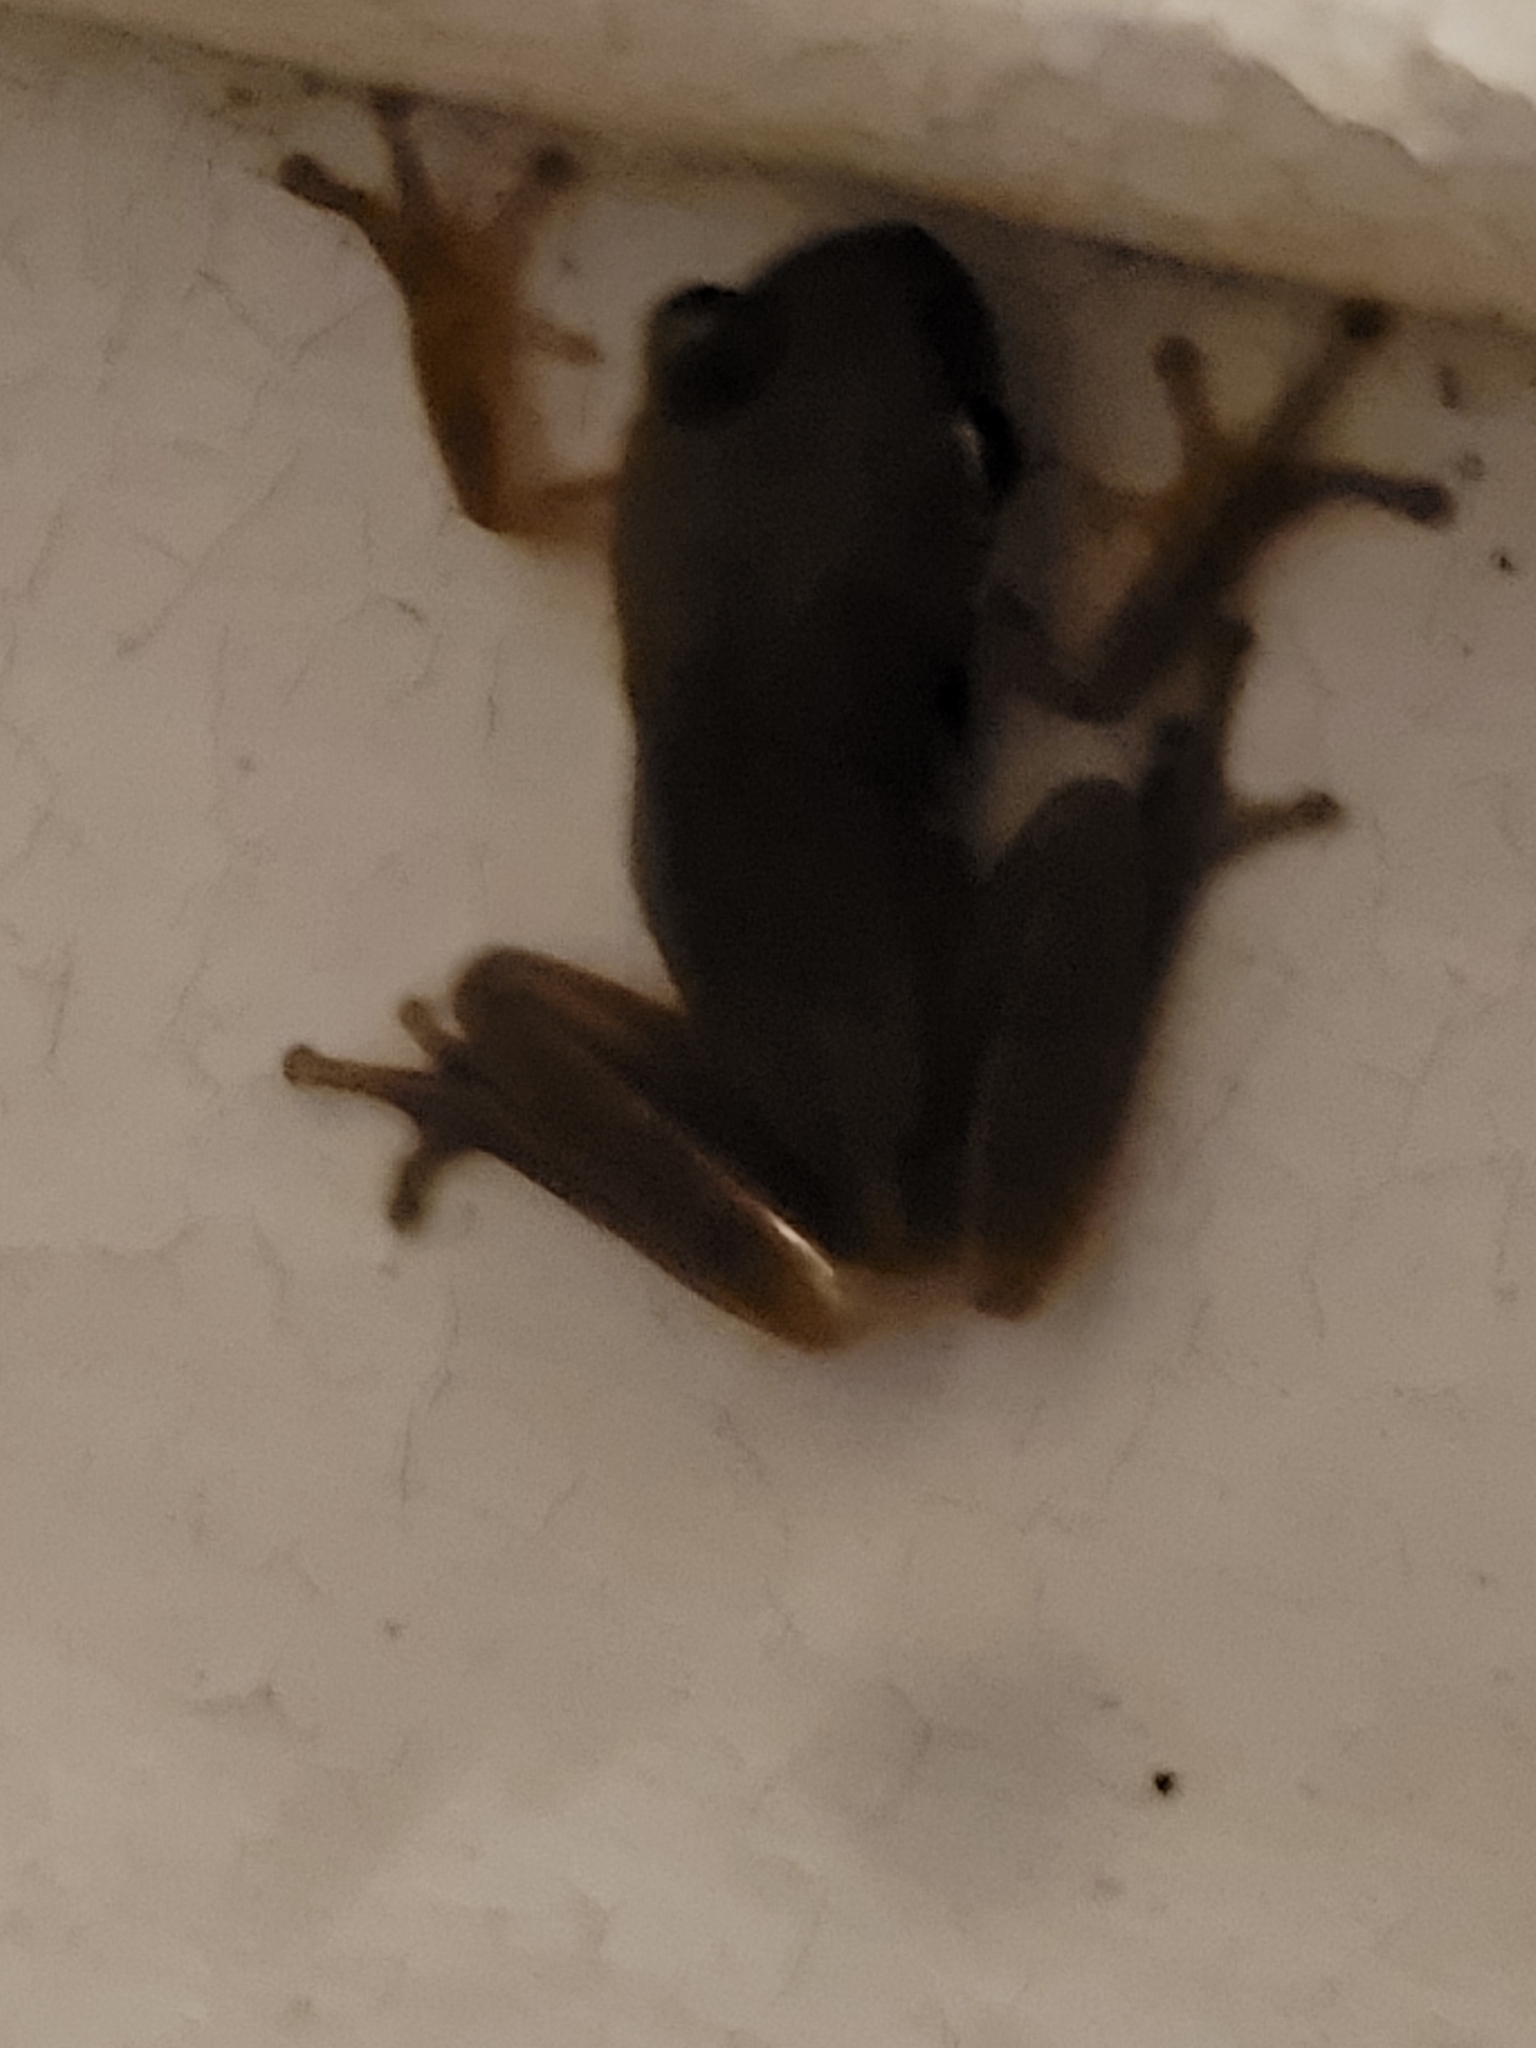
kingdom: Animalia
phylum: Chordata
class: Amphibia
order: Anura
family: Hylidae
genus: Dryophytes
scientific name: Dryophytes squirellus
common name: Squirrel treefrog
